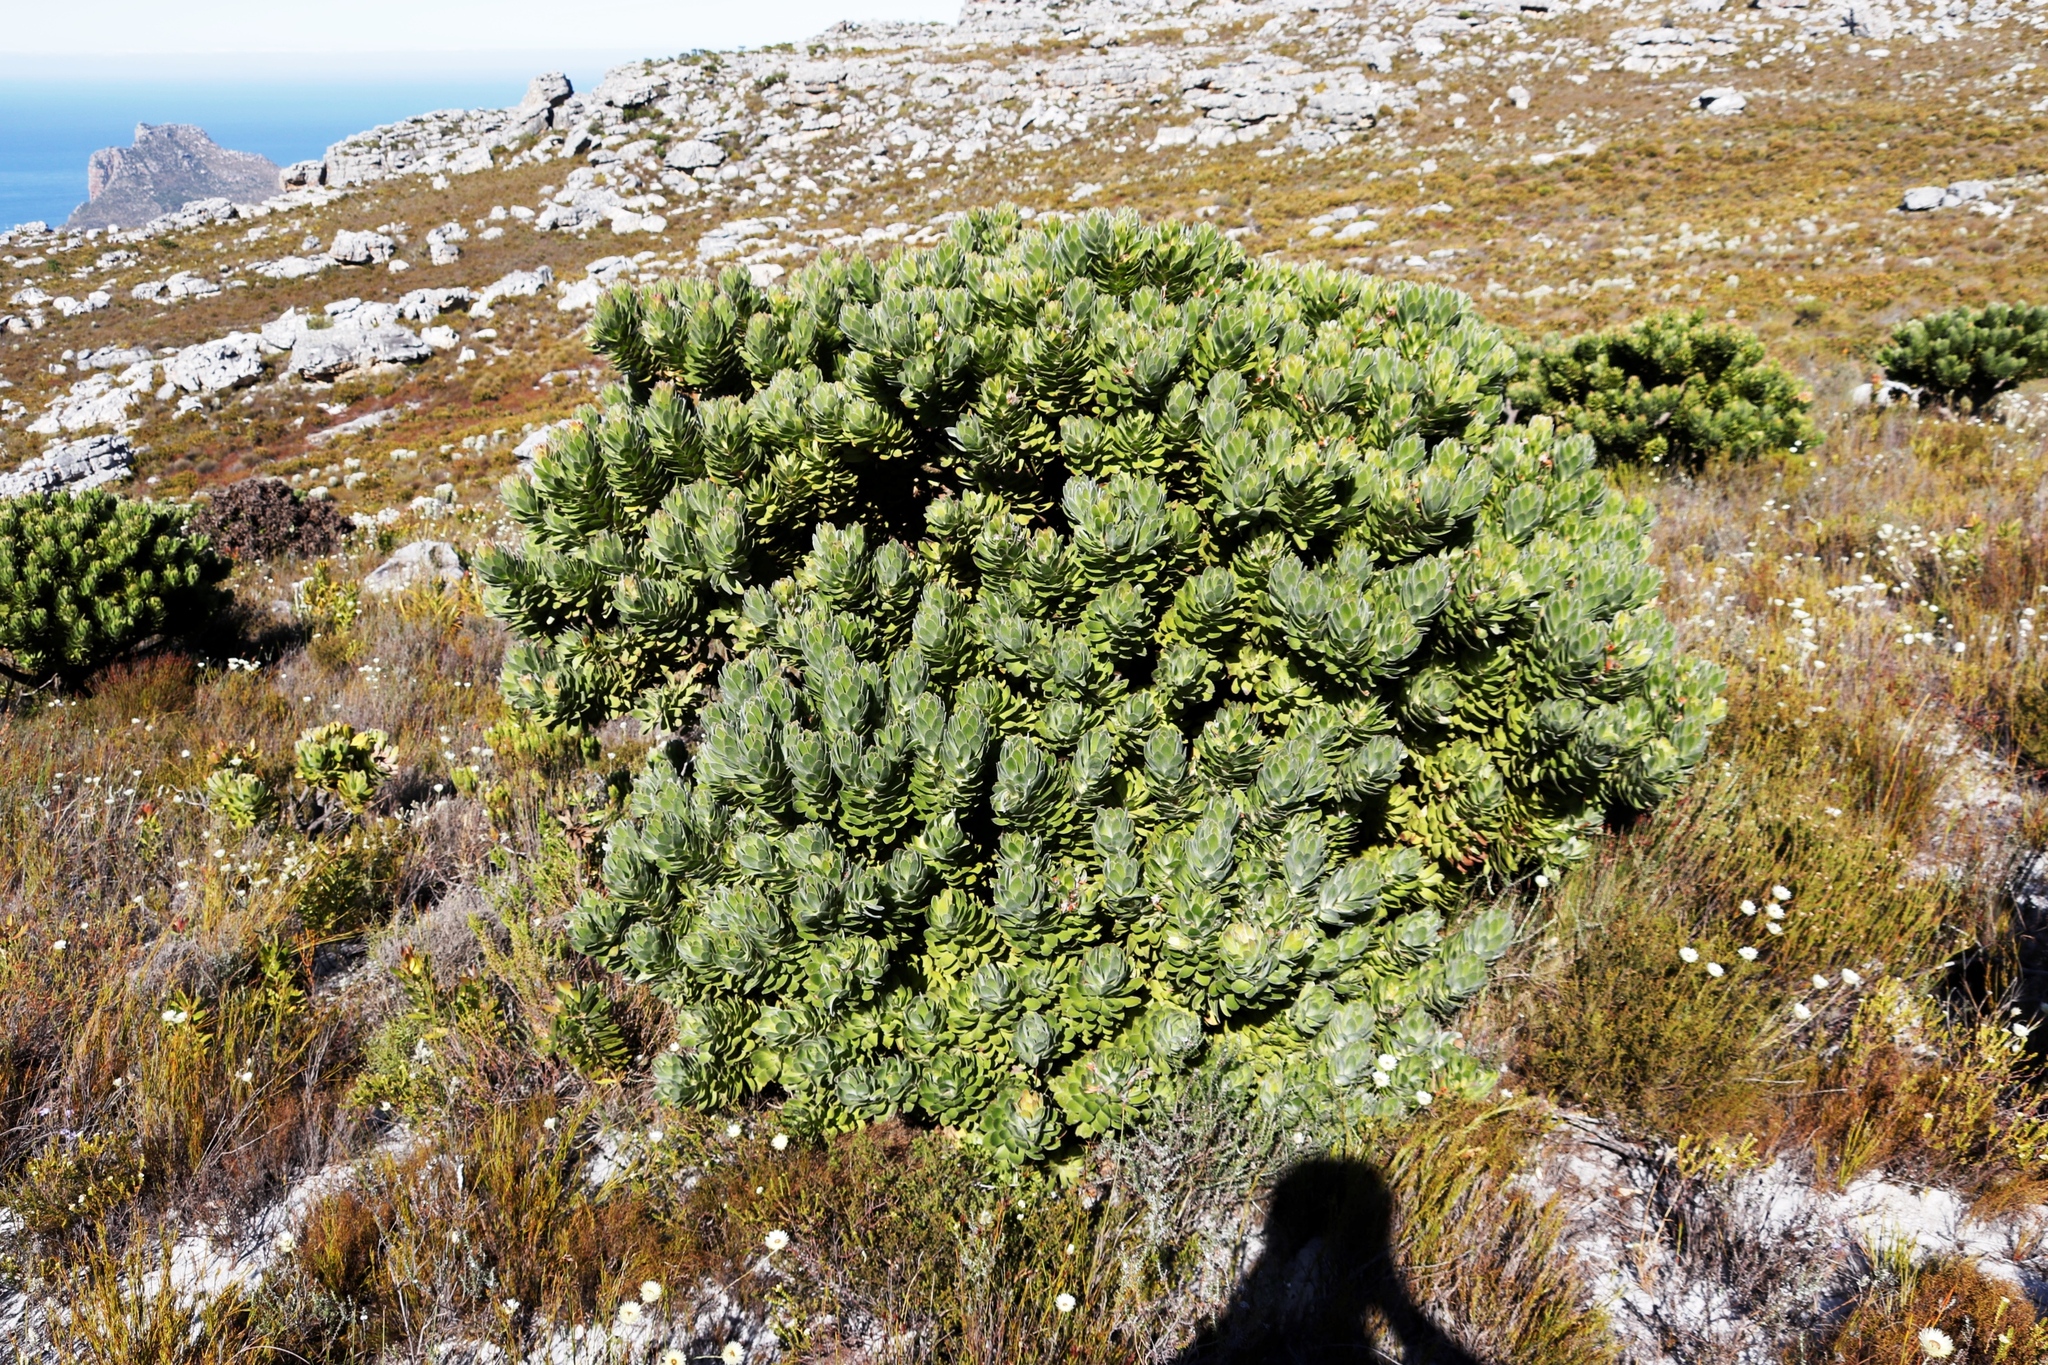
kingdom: Plantae
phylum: Tracheophyta
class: Magnoliopsida
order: Asterales
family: Campanulaceae
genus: Roella
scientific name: Roella triflora
